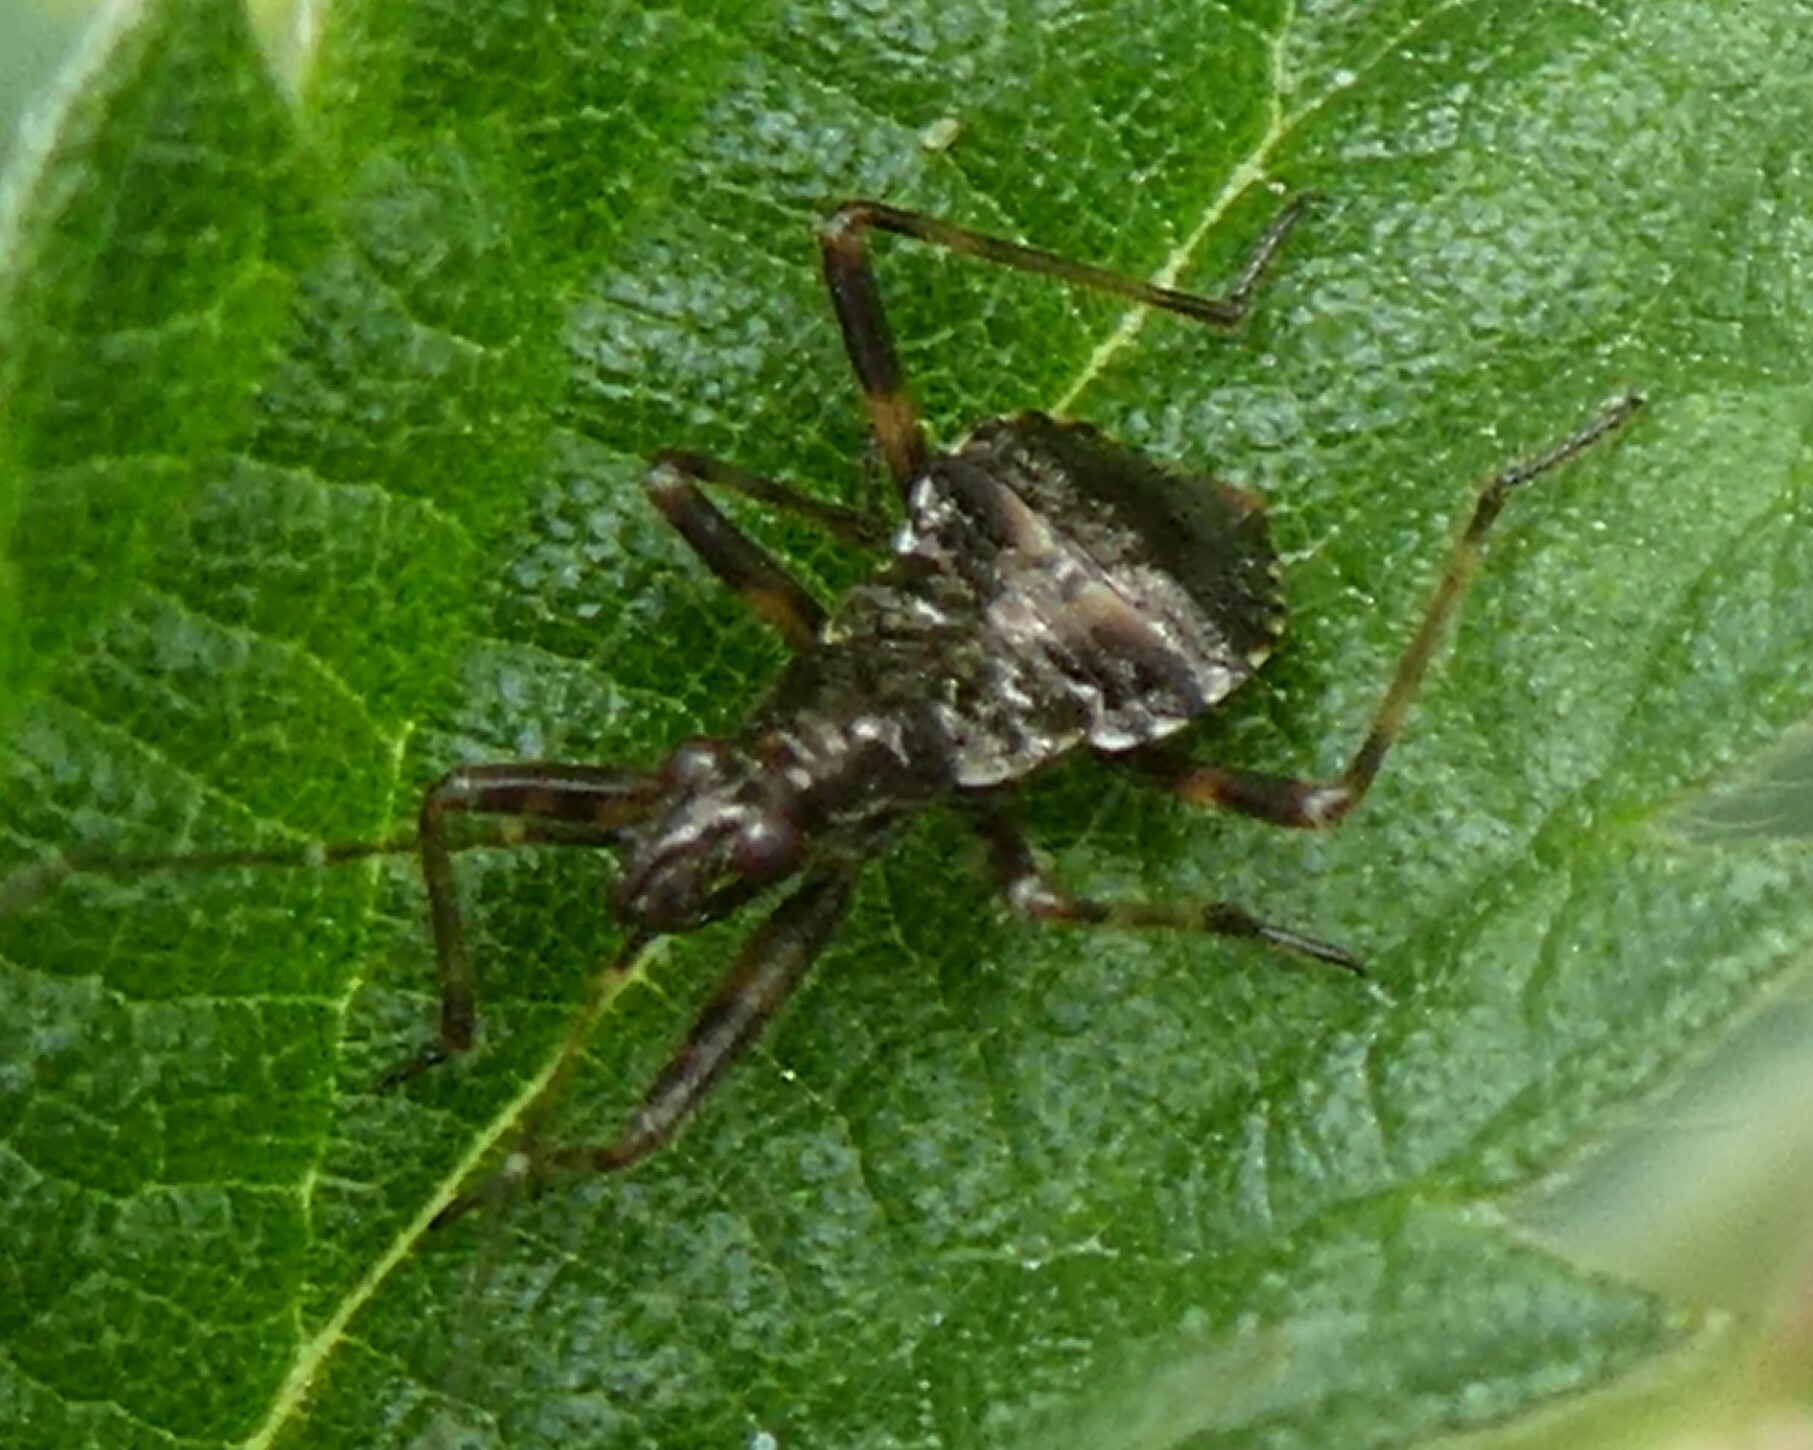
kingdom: Animalia
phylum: Arthropoda
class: Insecta
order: Hemiptera
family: Nabidae
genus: Himacerus
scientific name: Himacerus apterus
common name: Tree damsel bug
